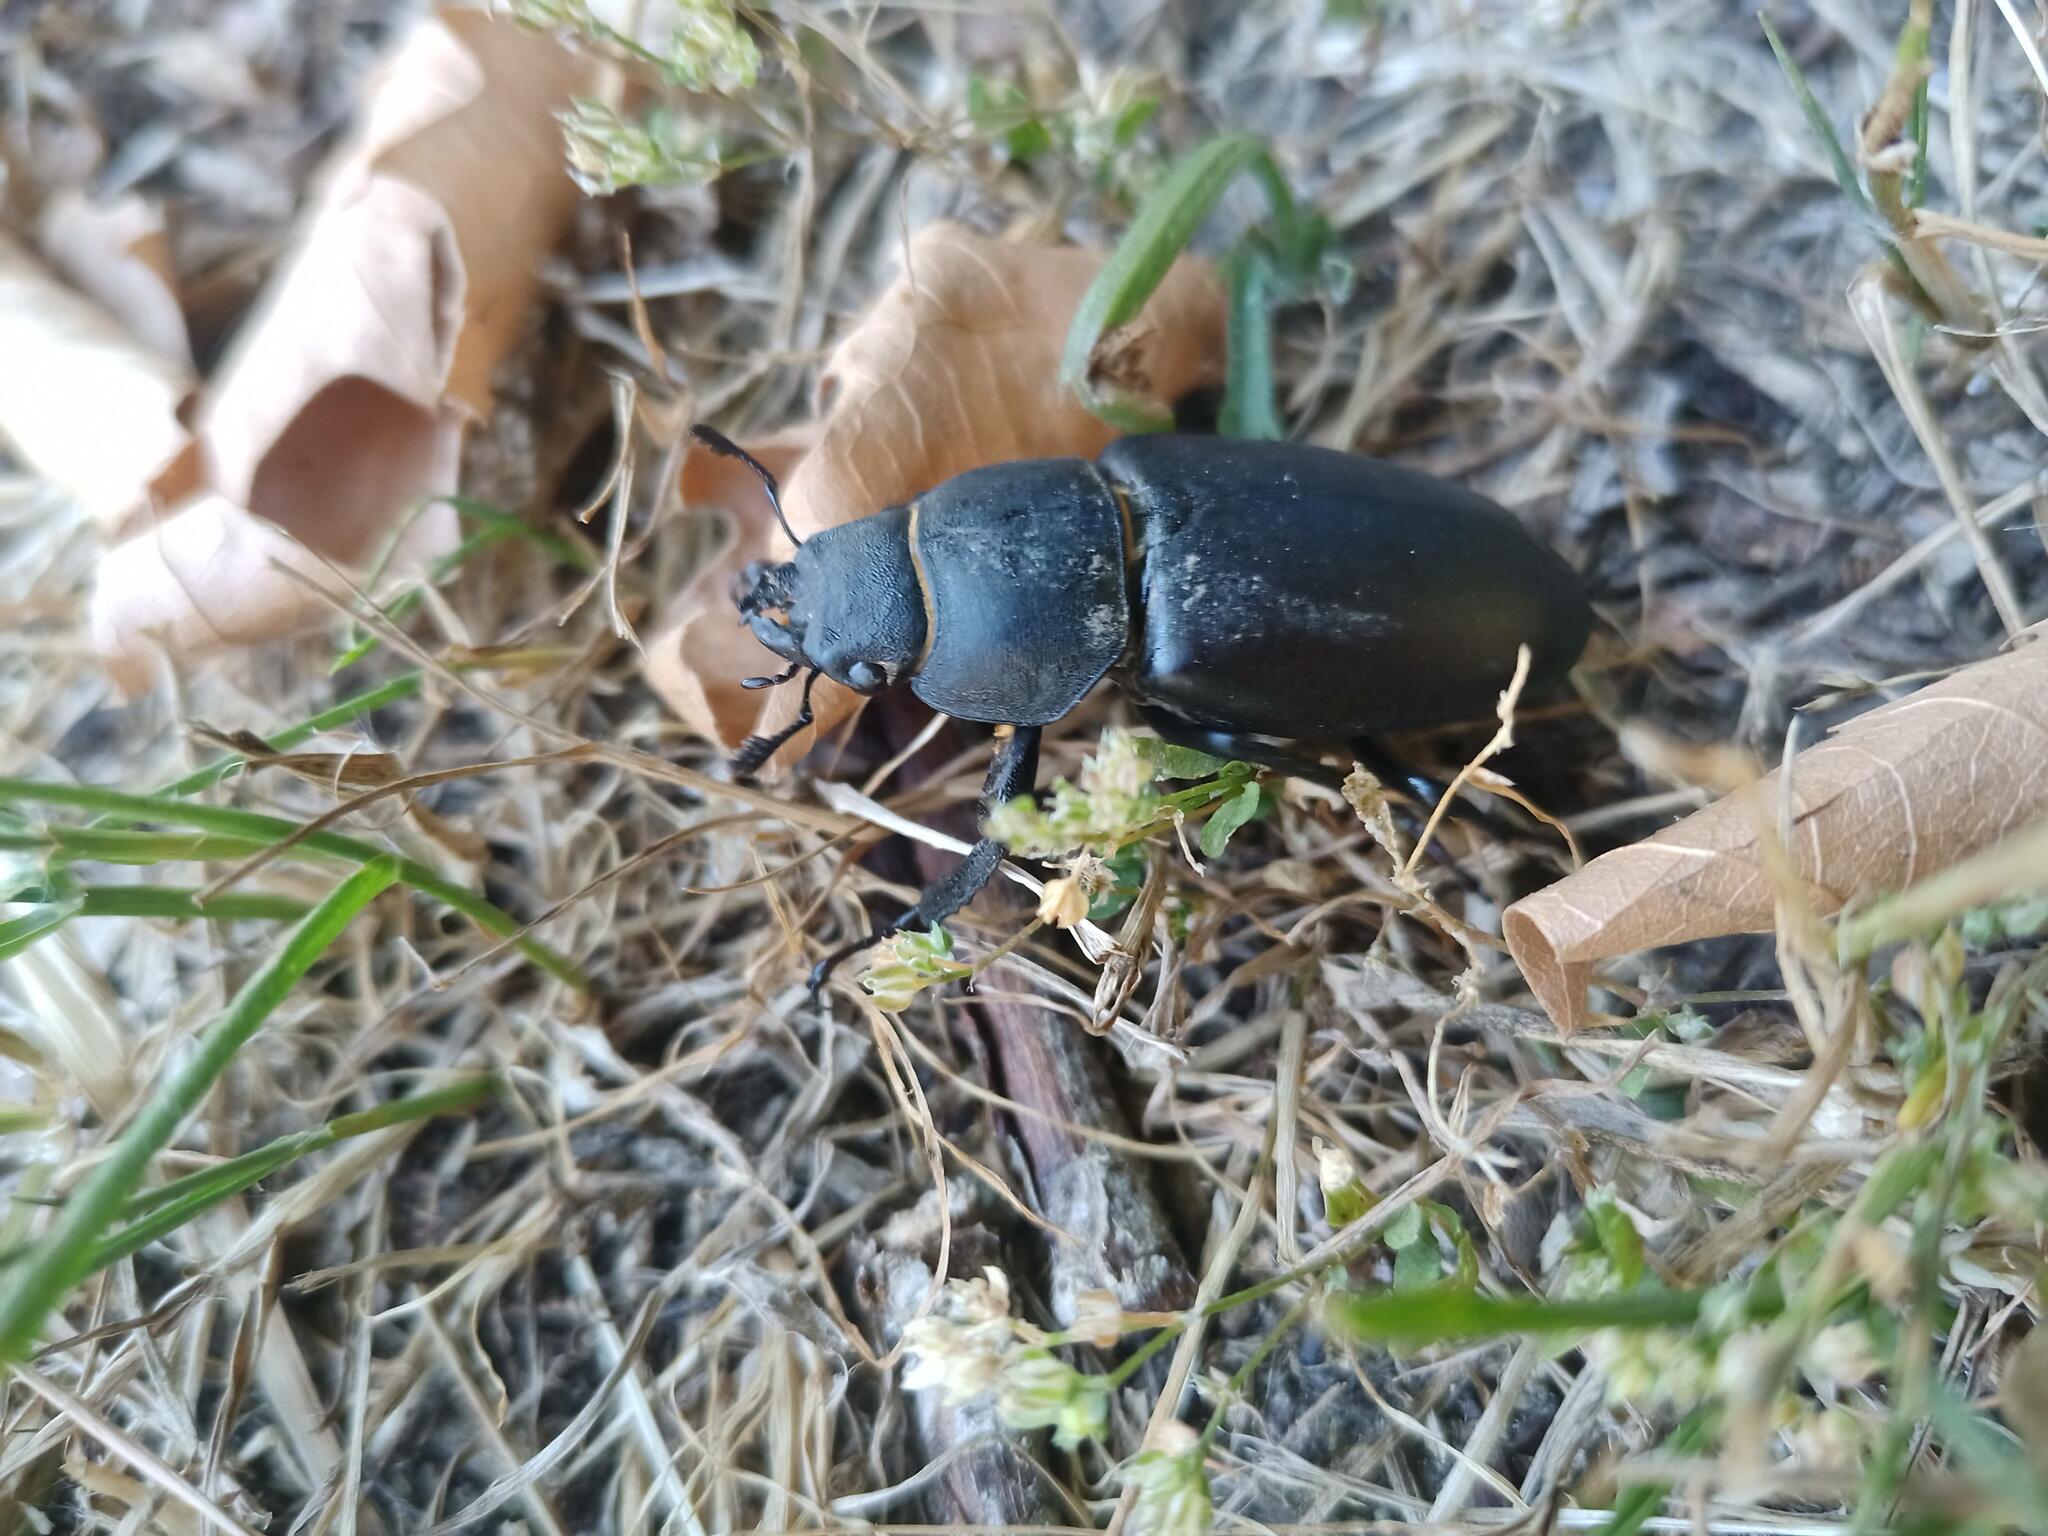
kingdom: Animalia
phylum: Arthropoda
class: Insecta
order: Coleoptera
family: Lucanidae
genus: Lucanus
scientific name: Lucanus cervus
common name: Stag beetle
